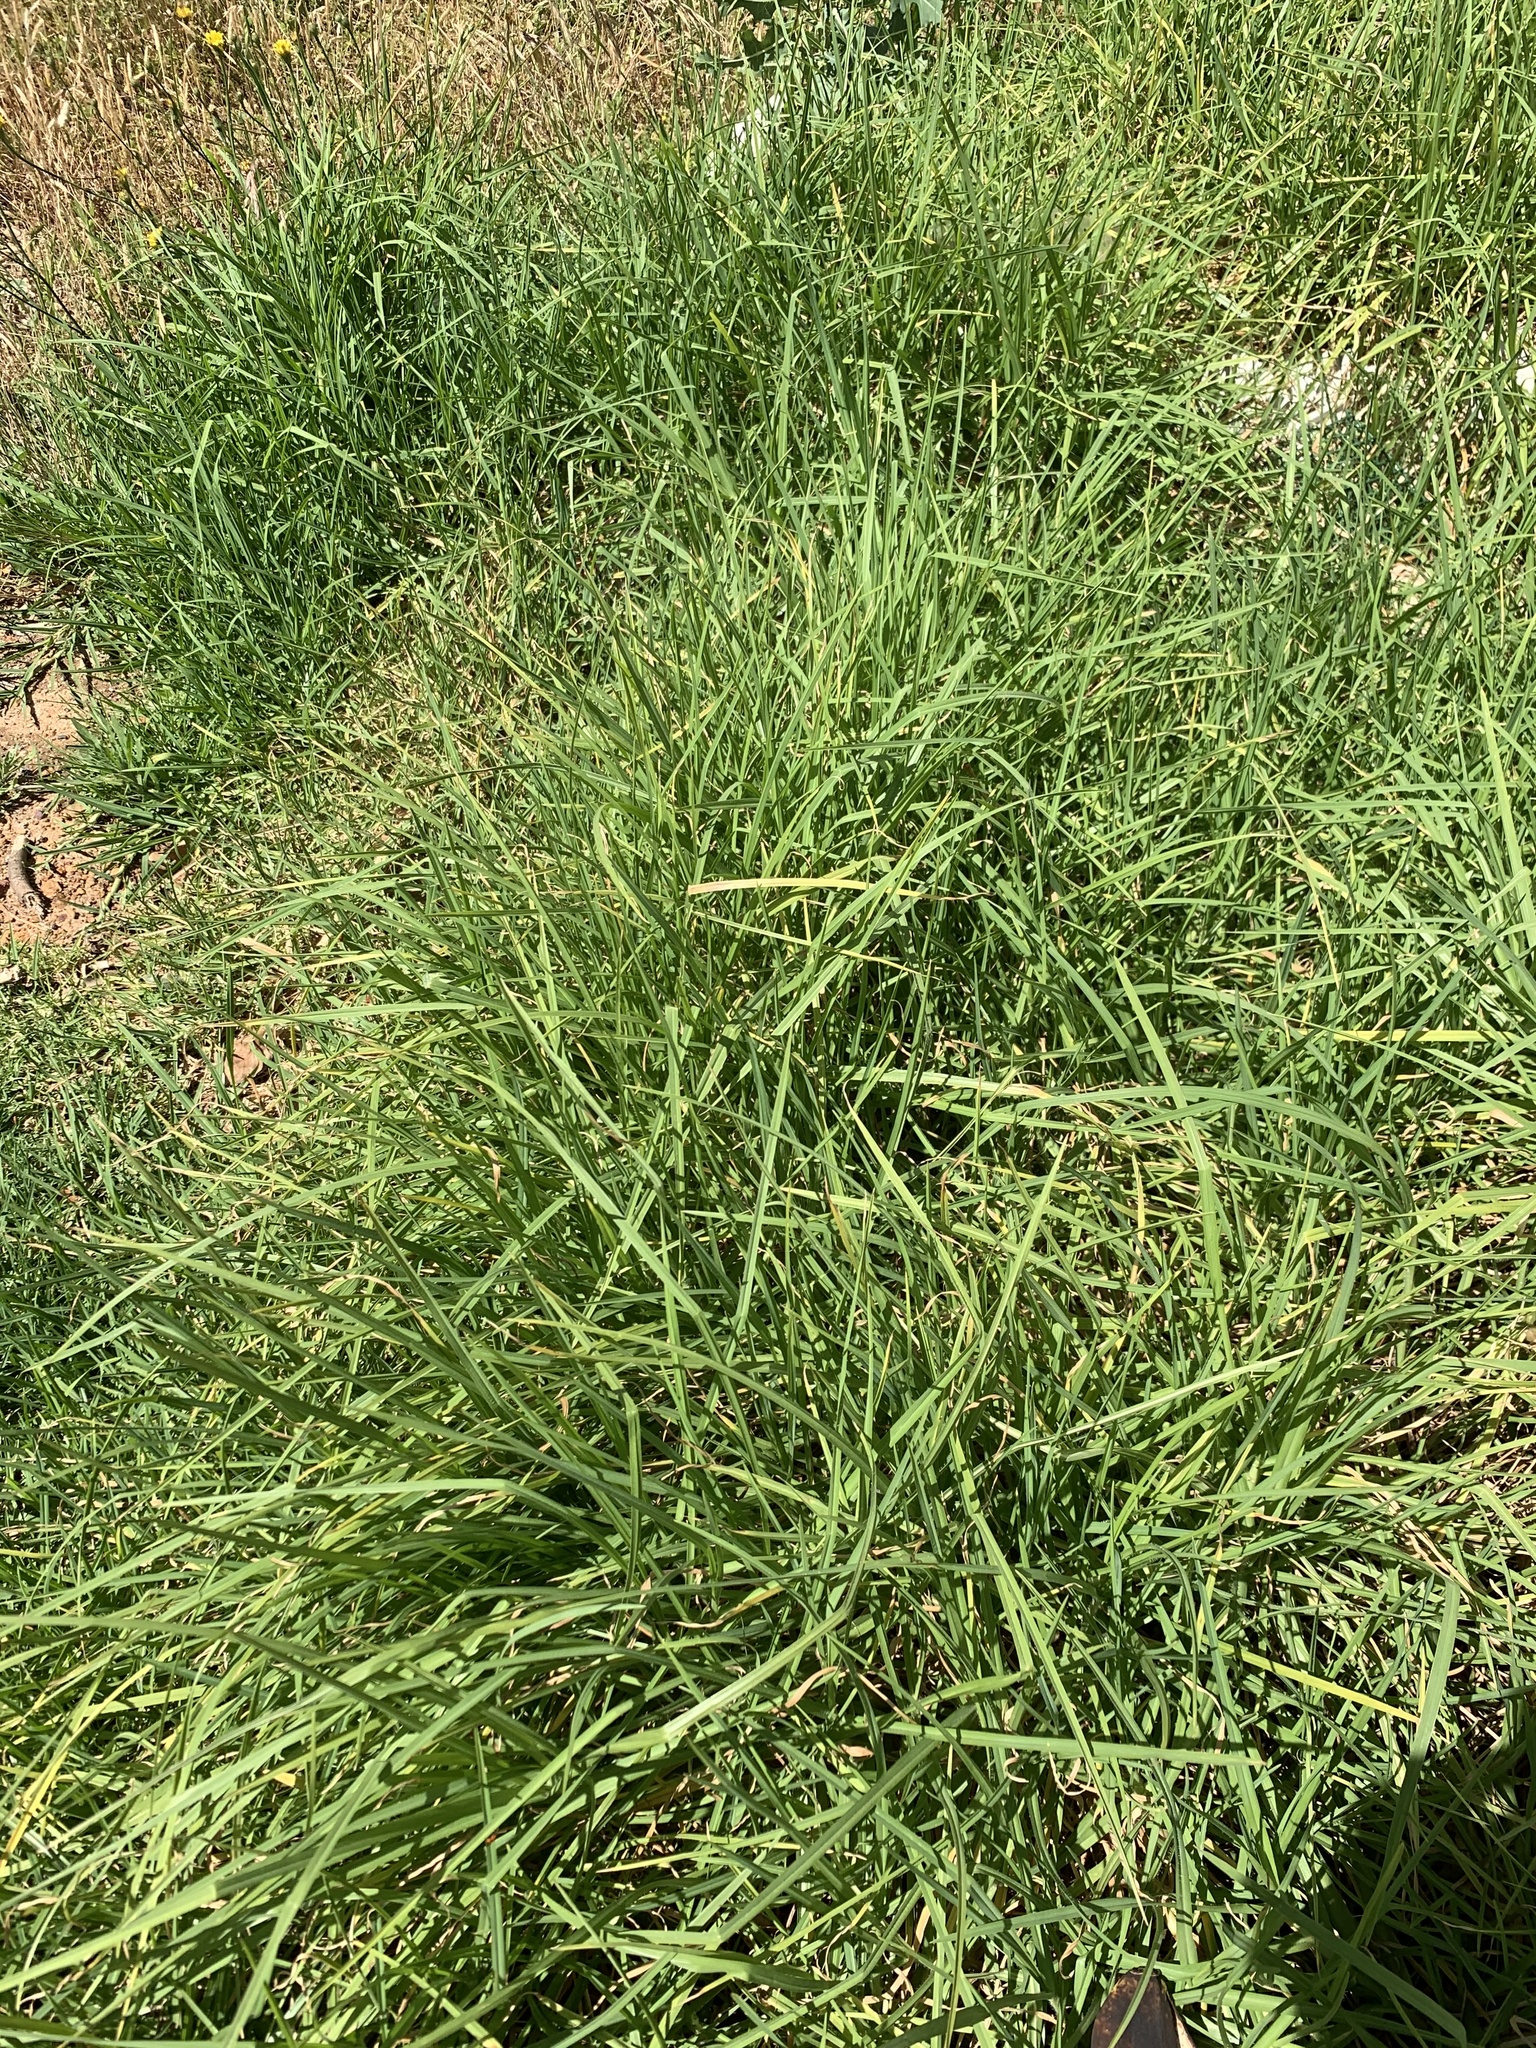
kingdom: Plantae
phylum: Tracheophyta
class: Liliopsida
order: Poales
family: Poaceae
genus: Cenchrus
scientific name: Cenchrus clandestinus
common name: Kikuyugrass
